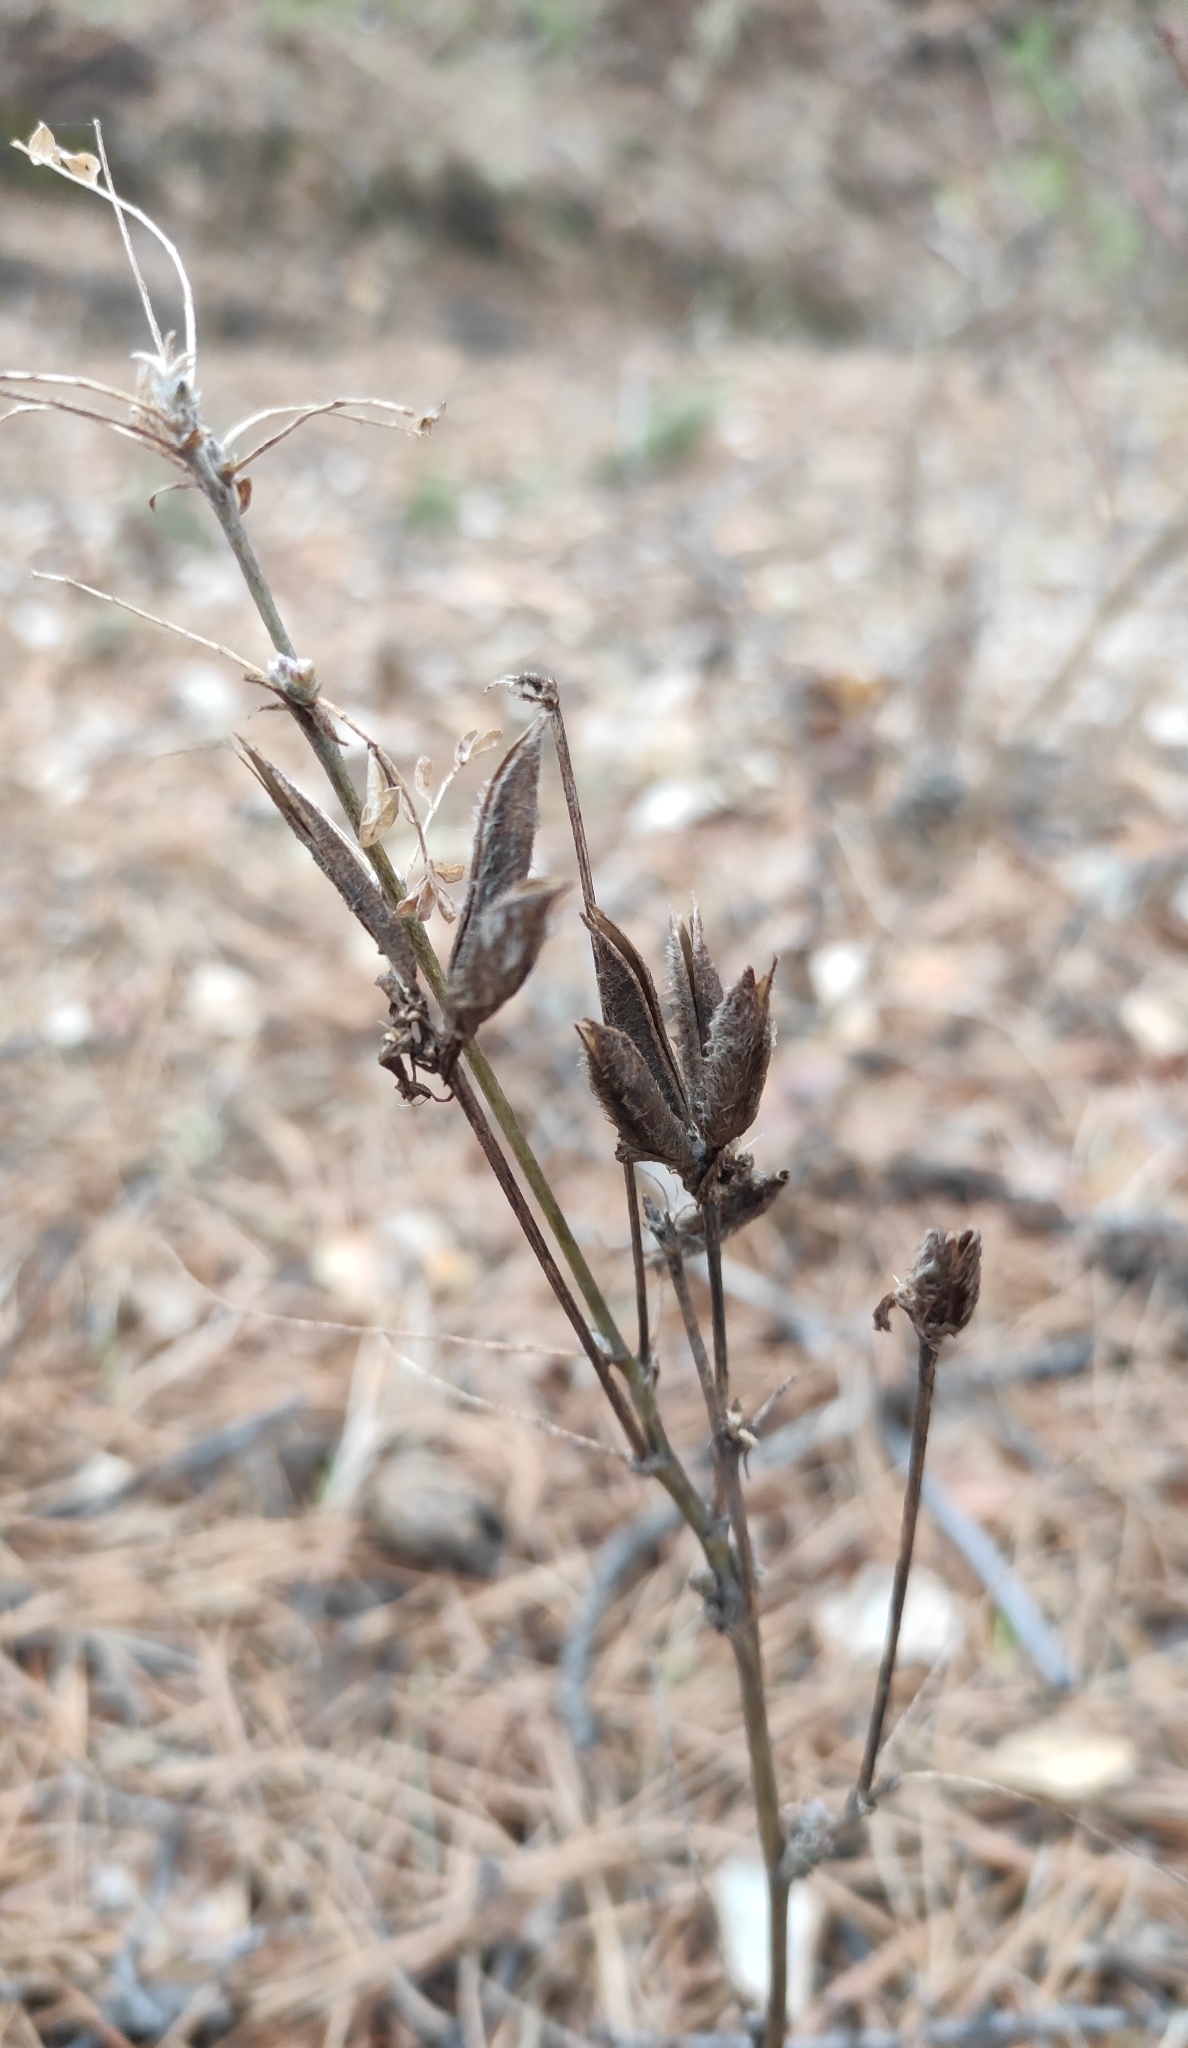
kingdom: Plantae
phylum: Tracheophyta
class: Magnoliopsida
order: Fabales
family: Fabaceae
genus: Astragalus
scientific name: Astragalus syriacus
